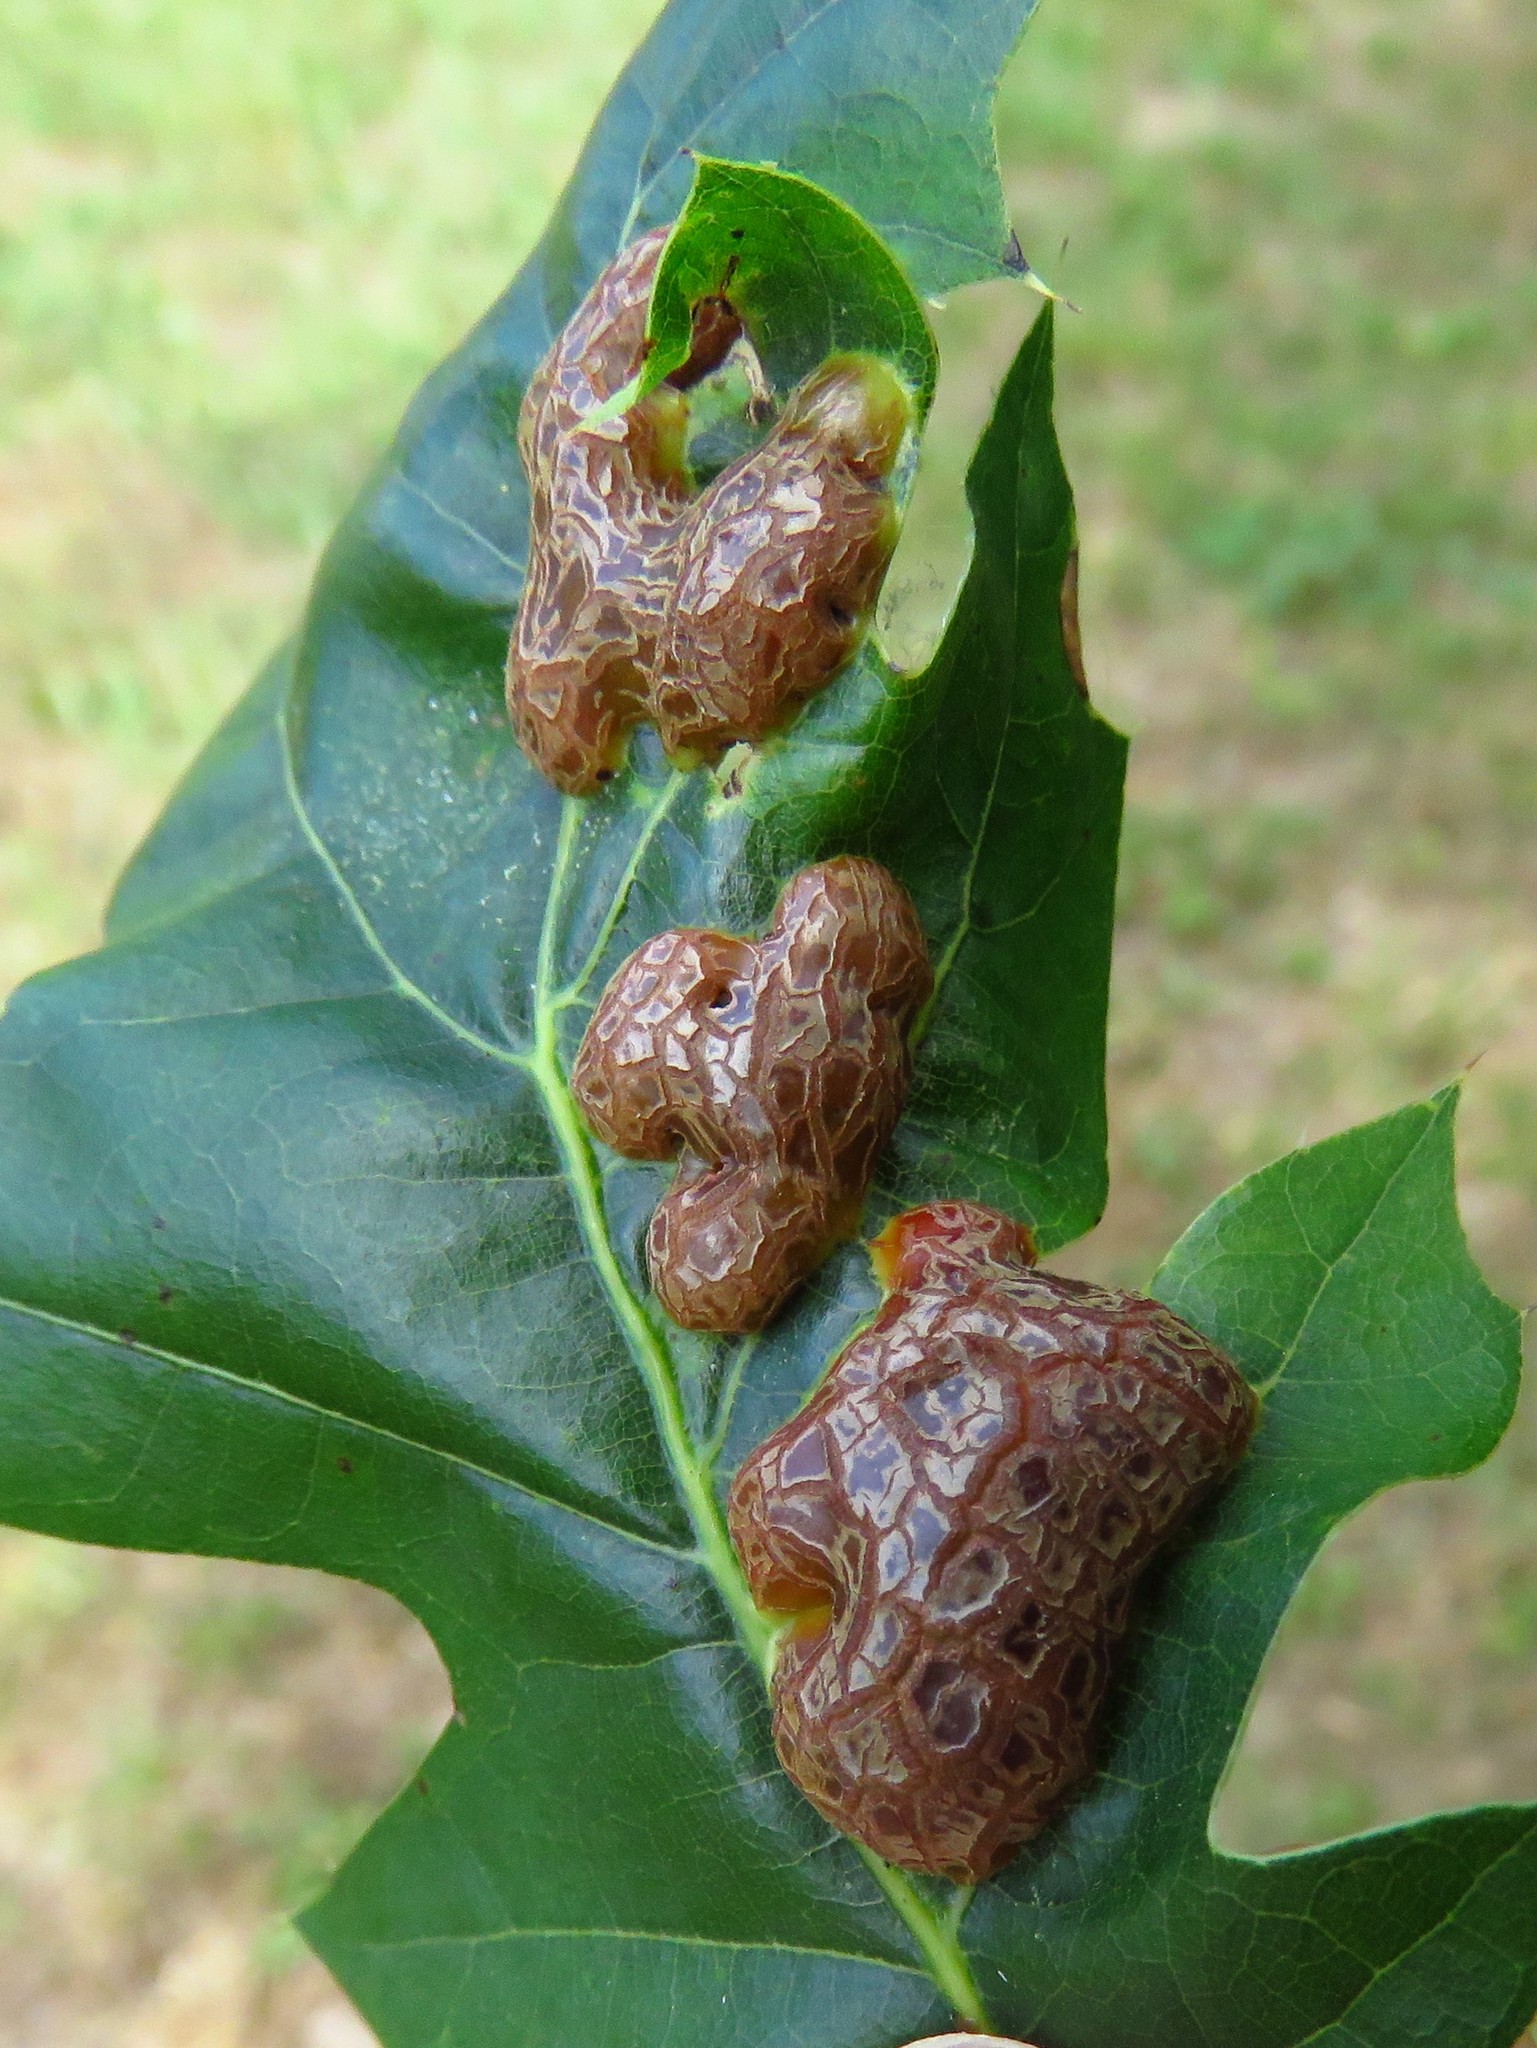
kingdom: Animalia
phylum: Arthropoda
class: Insecta
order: Diptera
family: Cecidomyiidae
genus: Polystepha
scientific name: Polystepha pilulae
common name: Oak leaf gall midge
